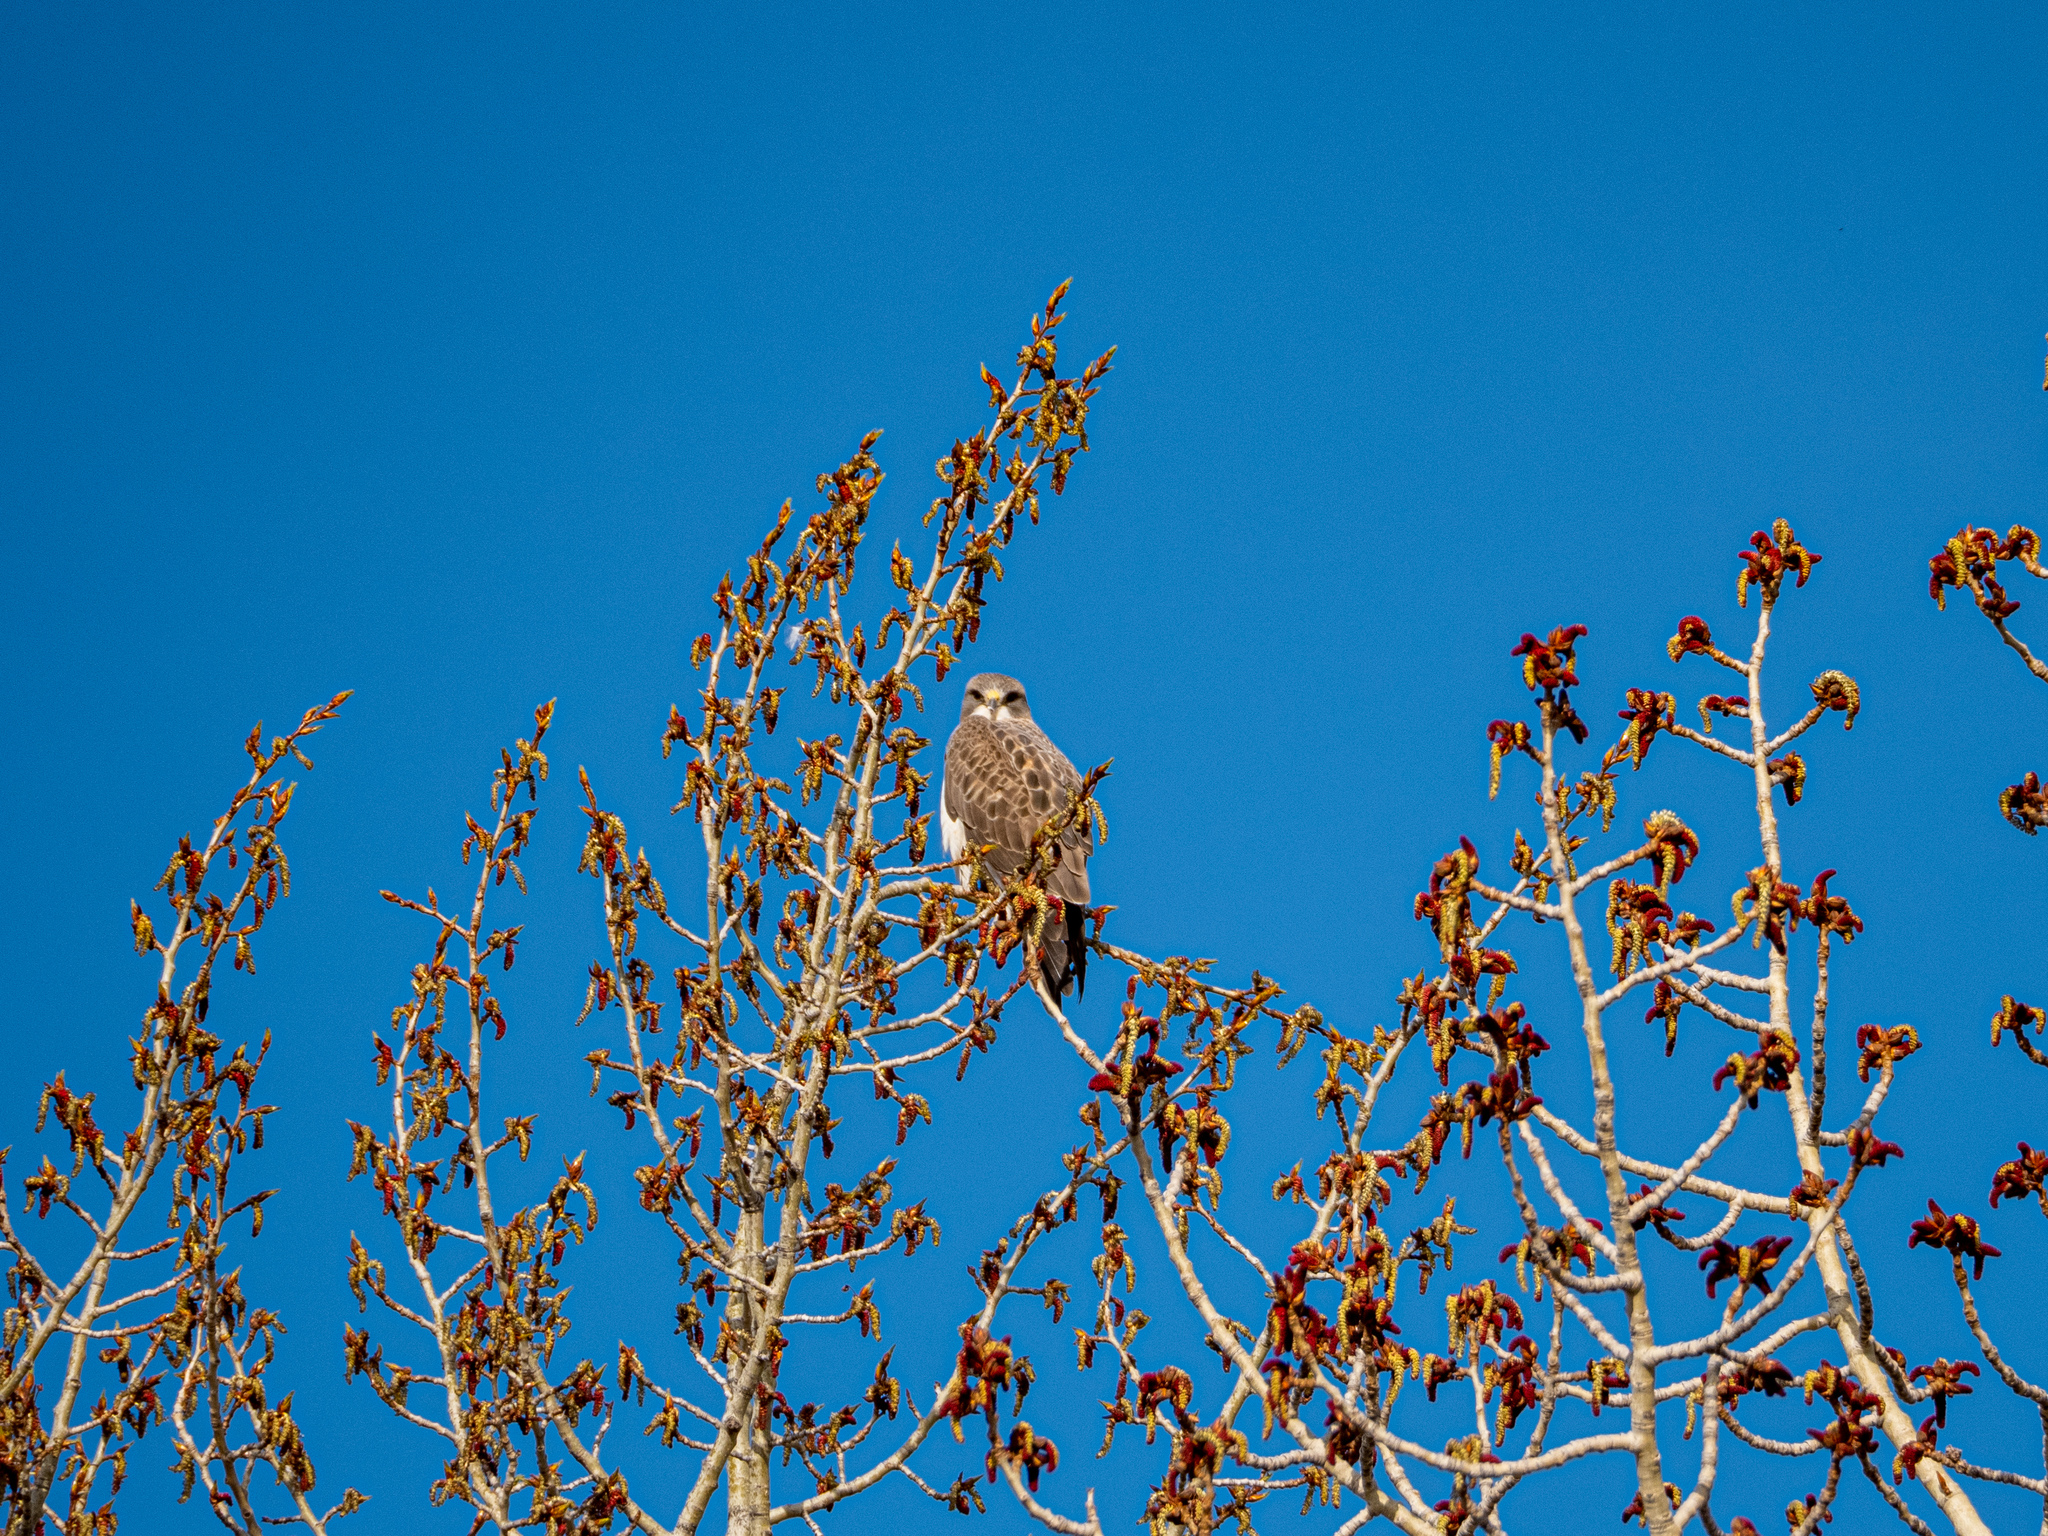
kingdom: Animalia
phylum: Chordata
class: Aves
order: Accipitriformes
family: Accipitridae
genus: Buteo
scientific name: Buteo swainsoni
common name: Swainson's hawk
